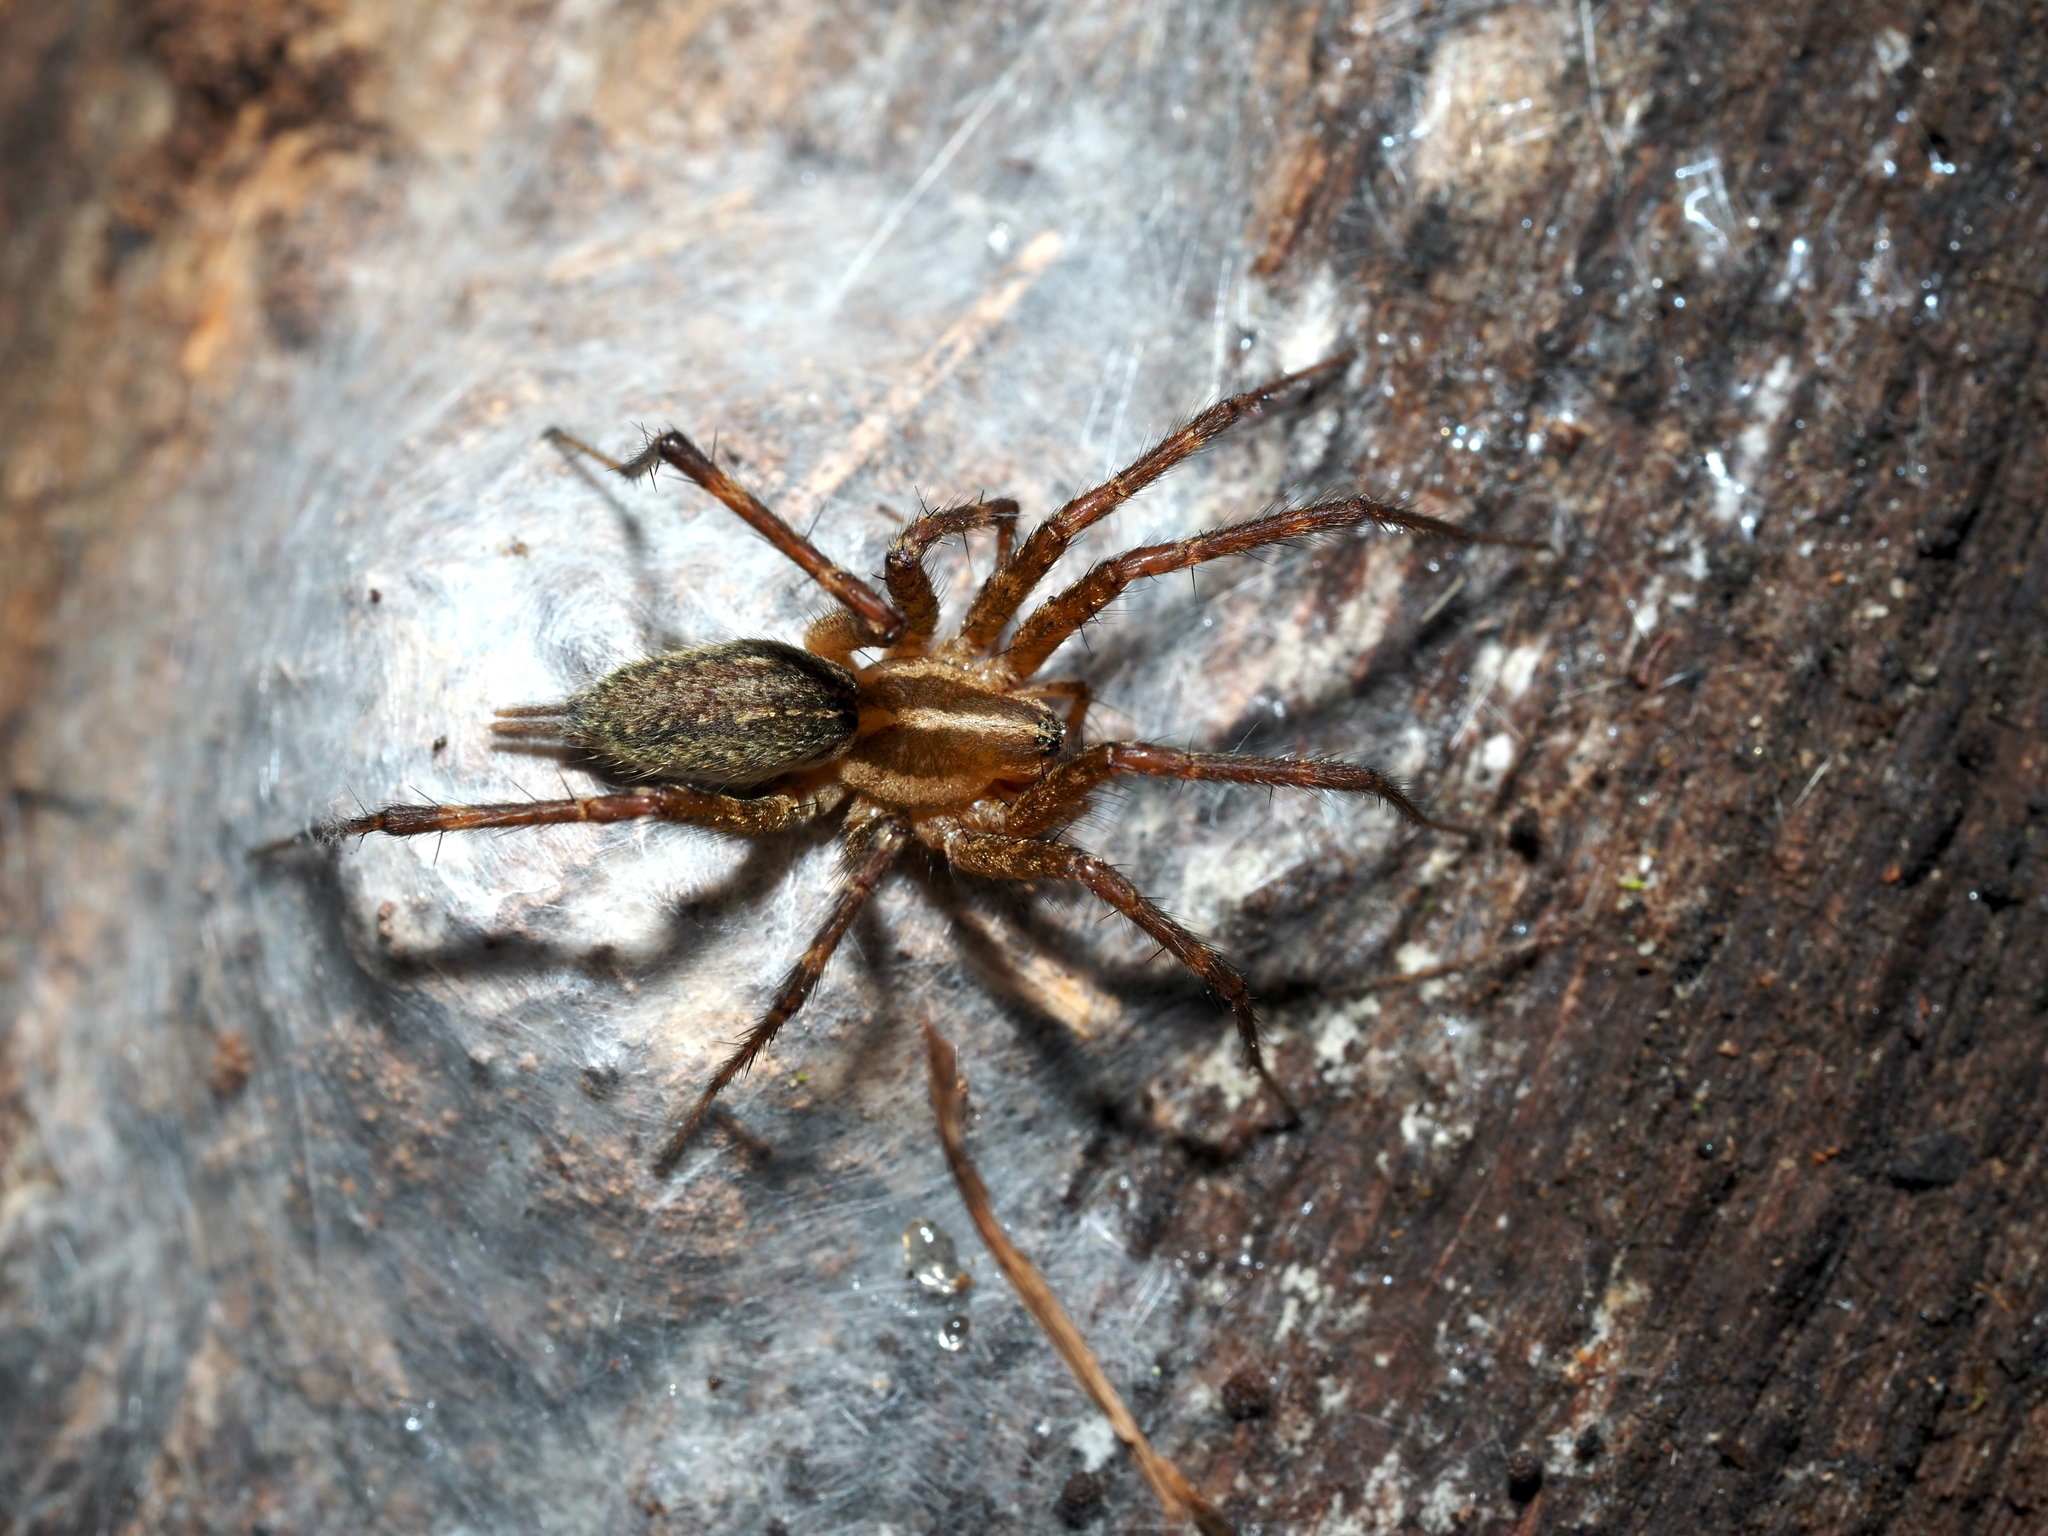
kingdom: Animalia
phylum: Arthropoda
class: Arachnida
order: Araneae
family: Agelenidae
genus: Agelenopsis
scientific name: Agelenopsis
